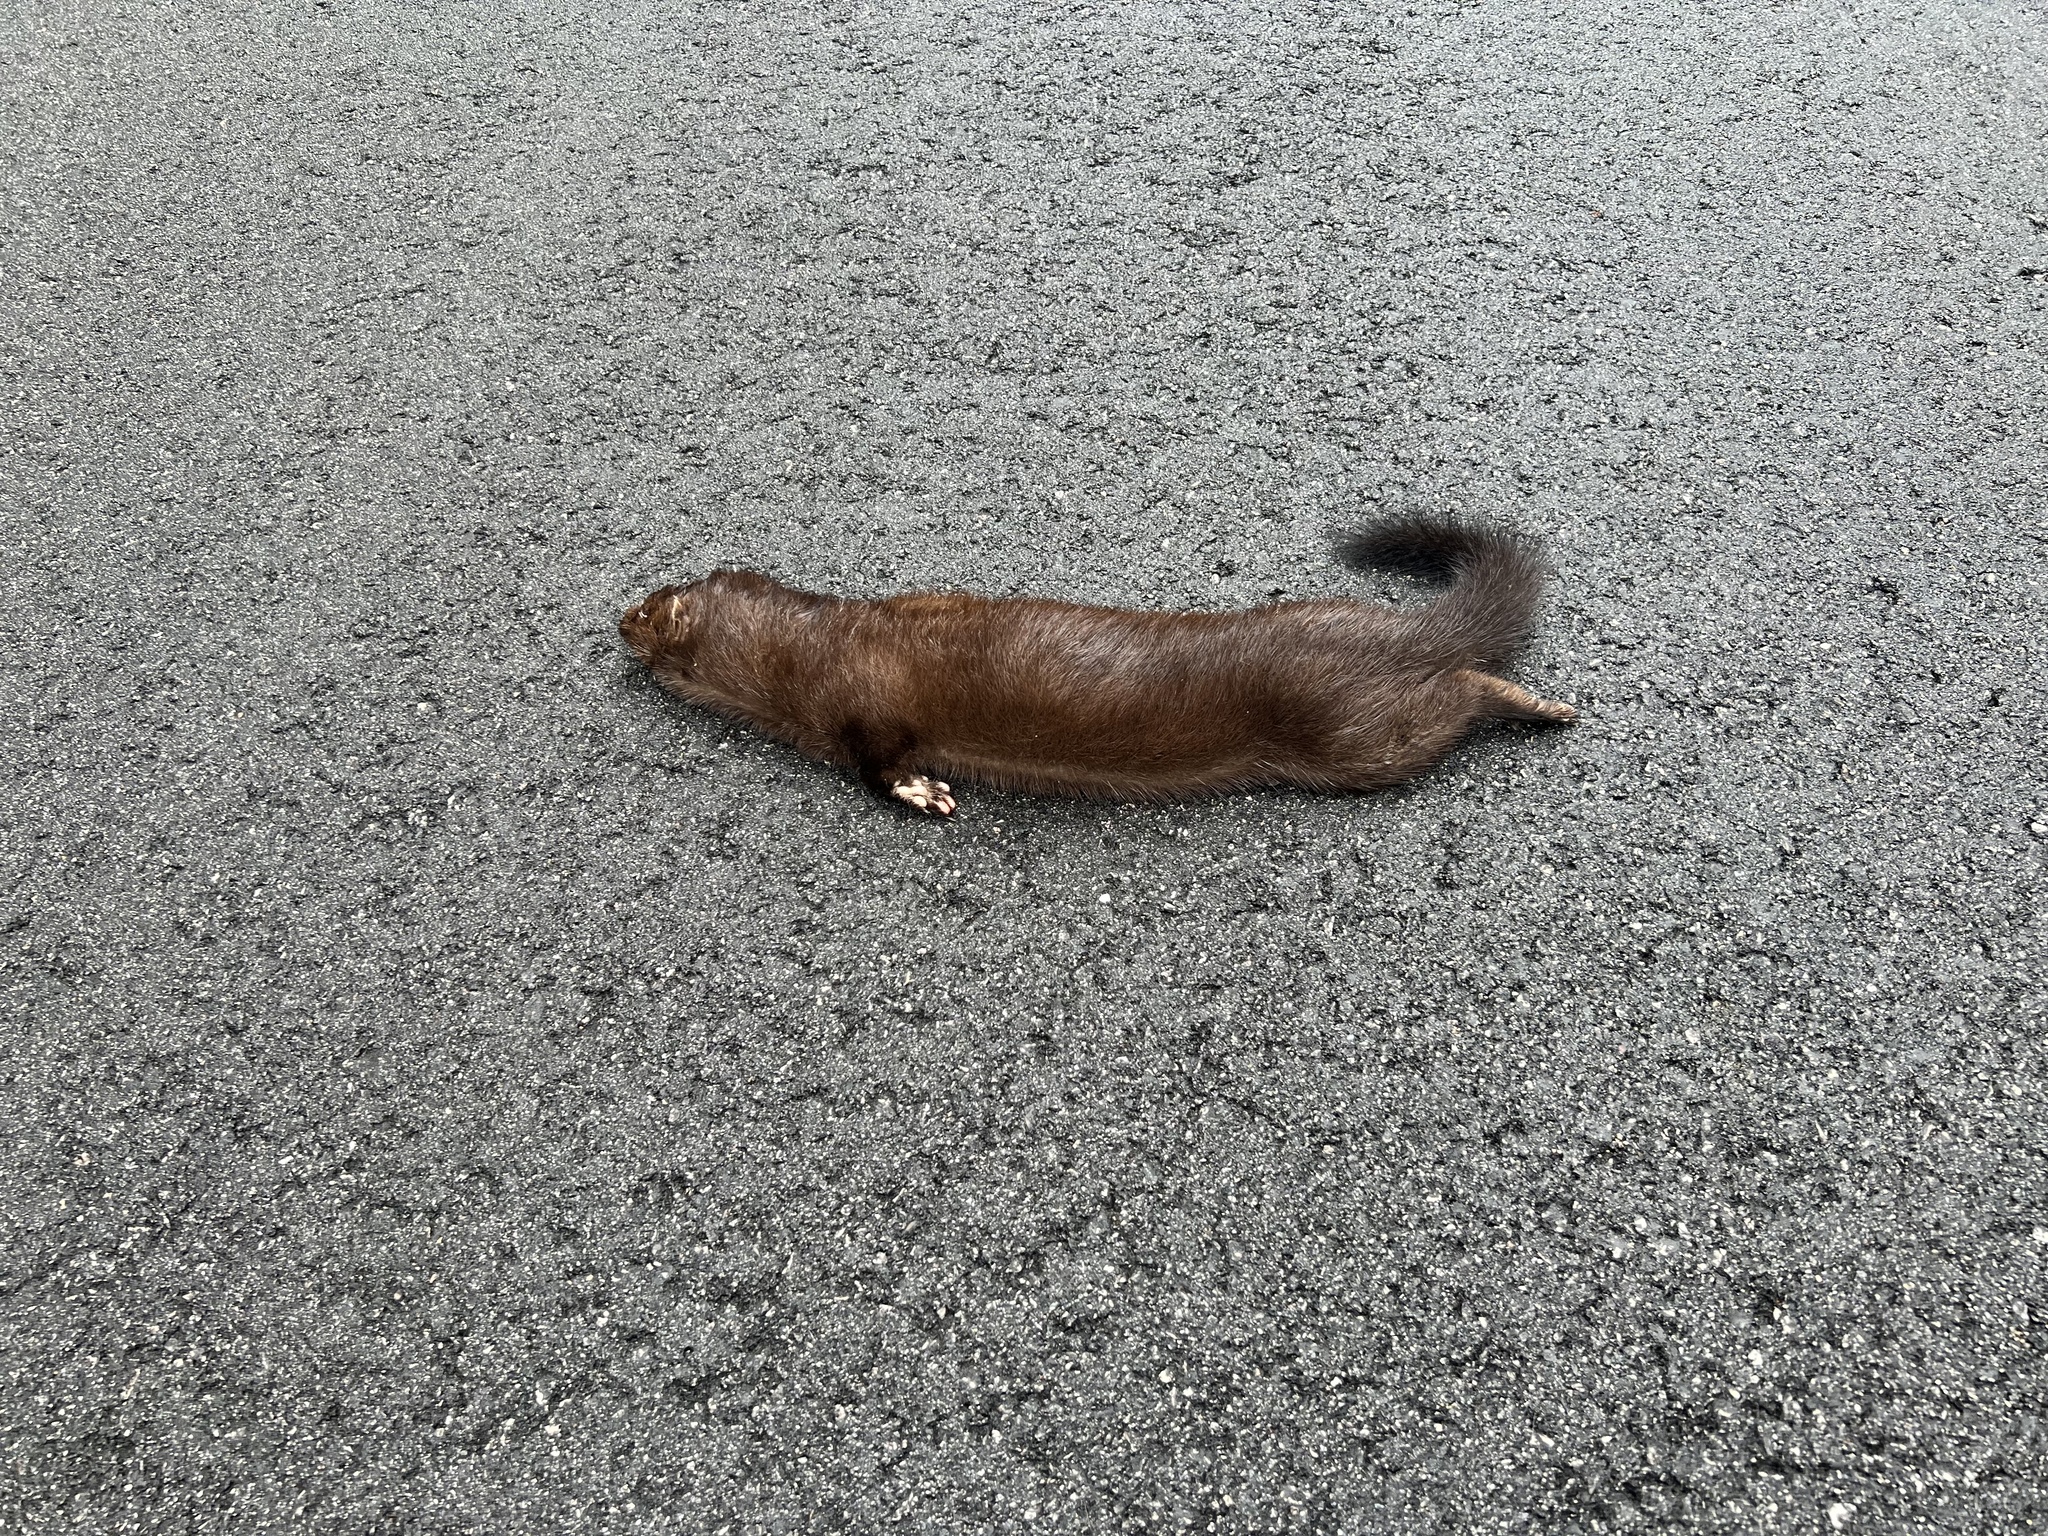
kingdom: Animalia
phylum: Chordata
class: Mammalia
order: Carnivora
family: Mustelidae
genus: Mustela
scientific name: Mustela
